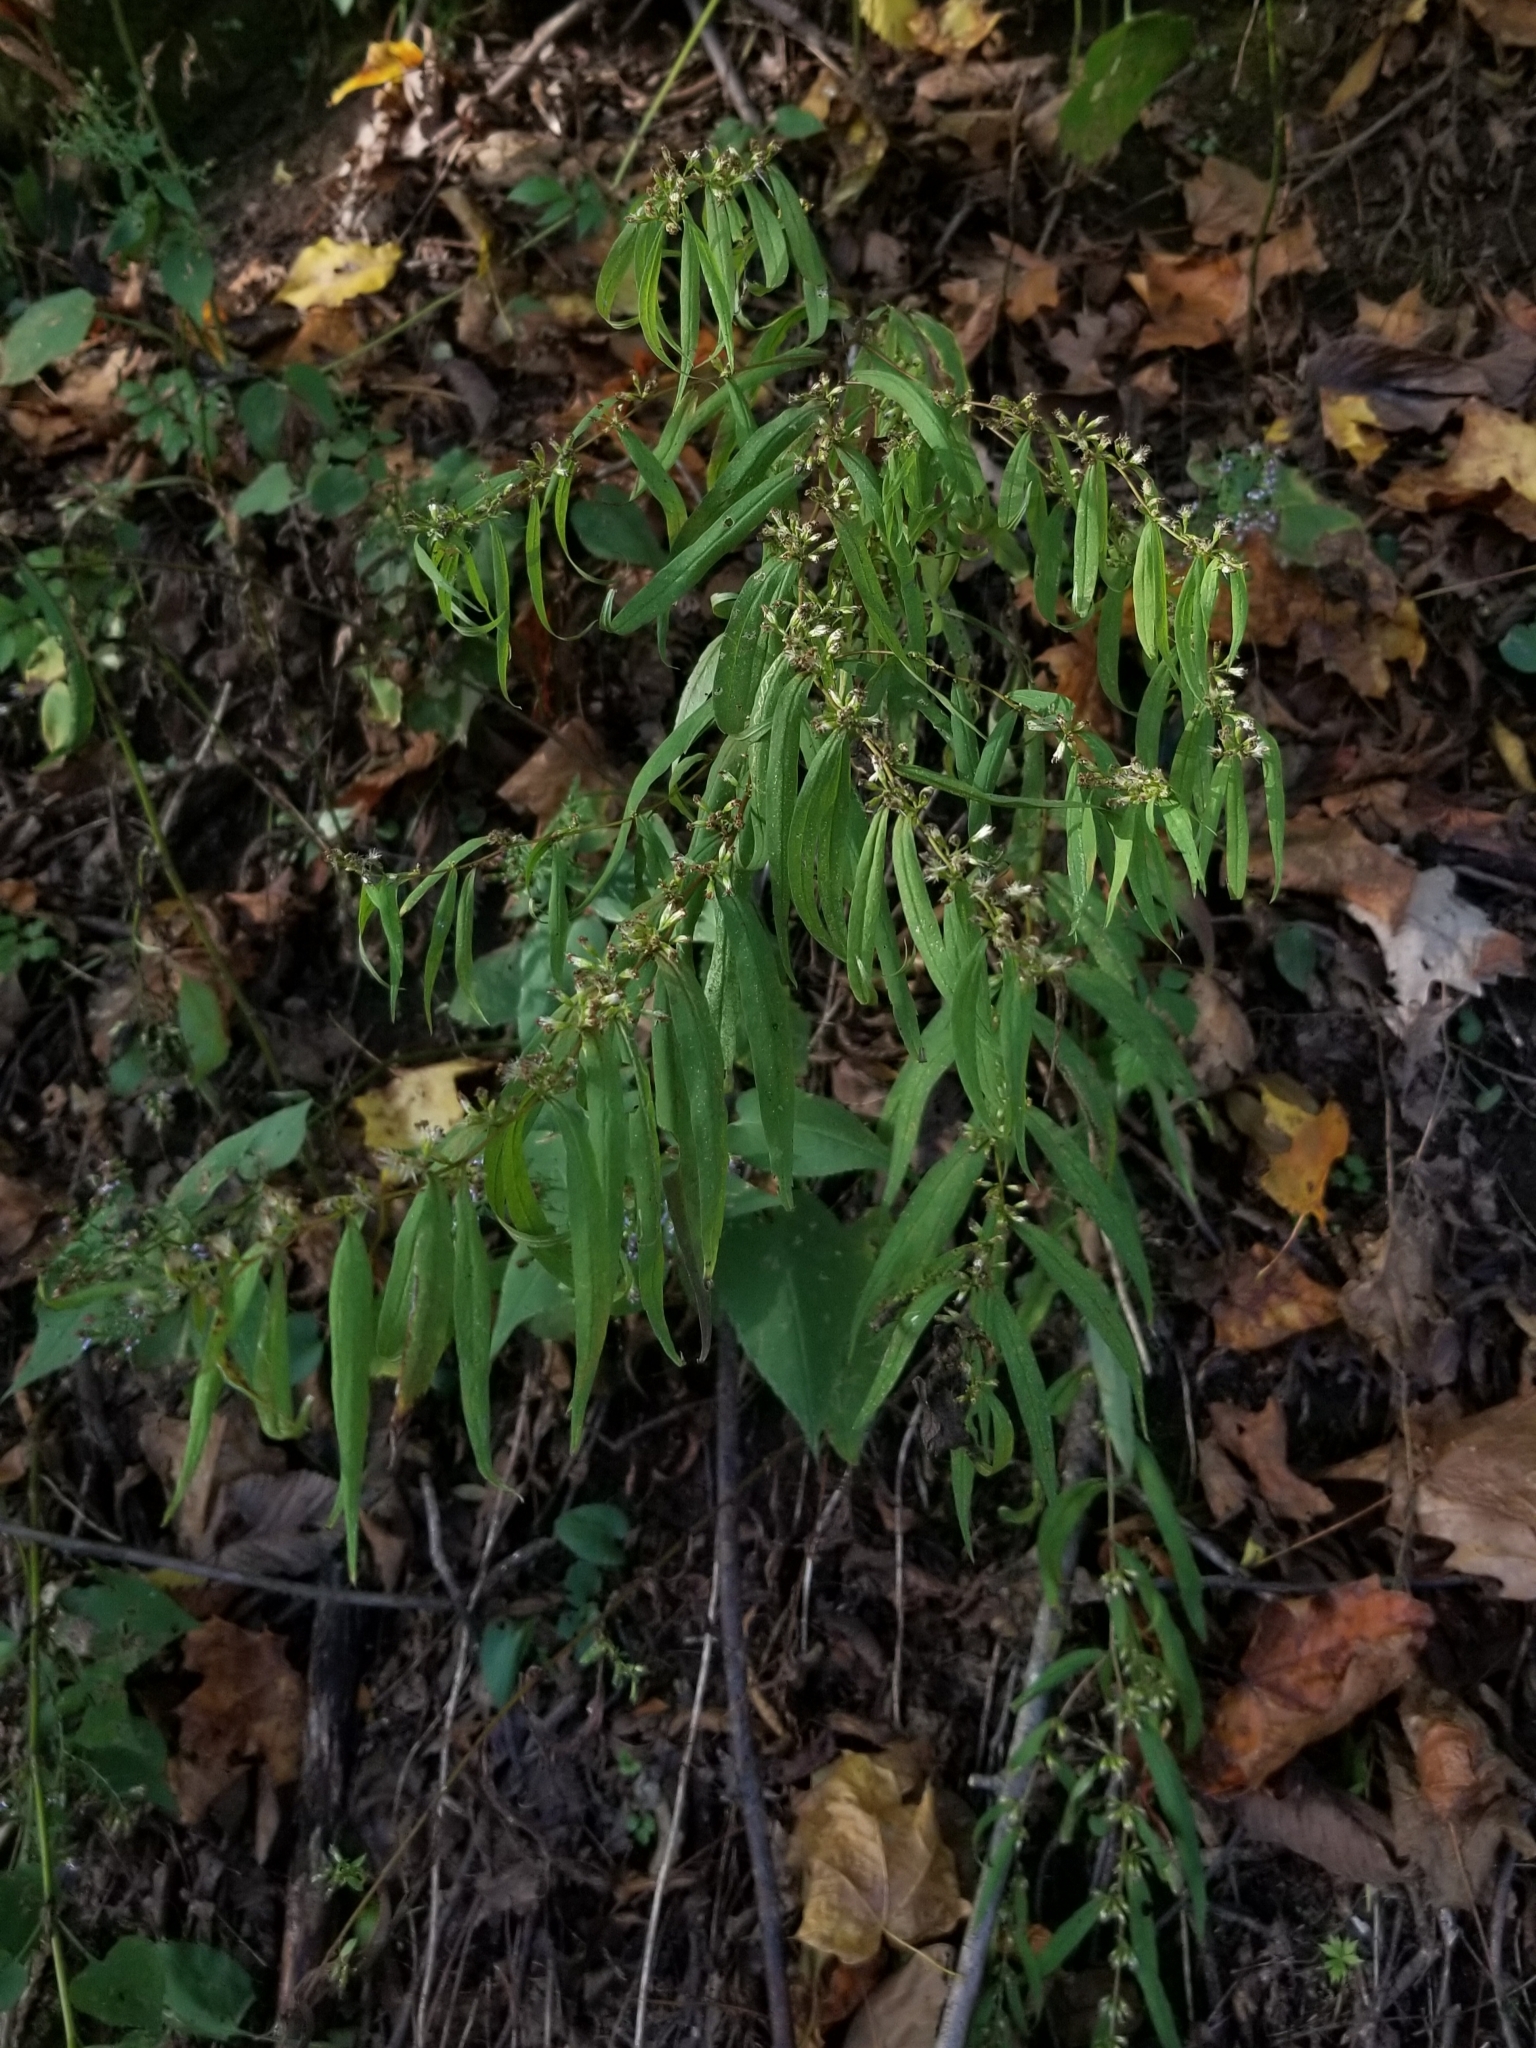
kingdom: Plantae
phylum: Tracheophyta
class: Magnoliopsida
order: Asterales
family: Asteraceae
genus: Solidago
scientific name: Solidago caesia
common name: Woodland goldenrod
